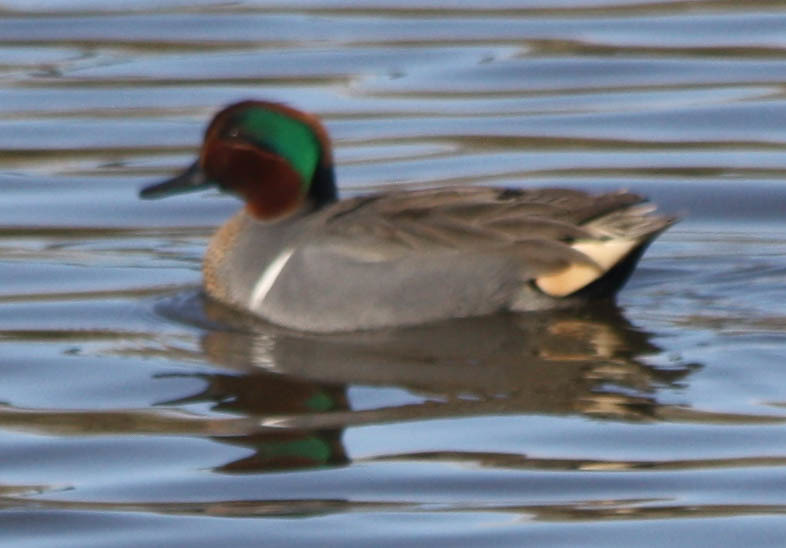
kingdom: Animalia
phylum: Chordata
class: Aves
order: Anseriformes
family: Anatidae
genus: Anas
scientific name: Anas crecca
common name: Eurasian teal
